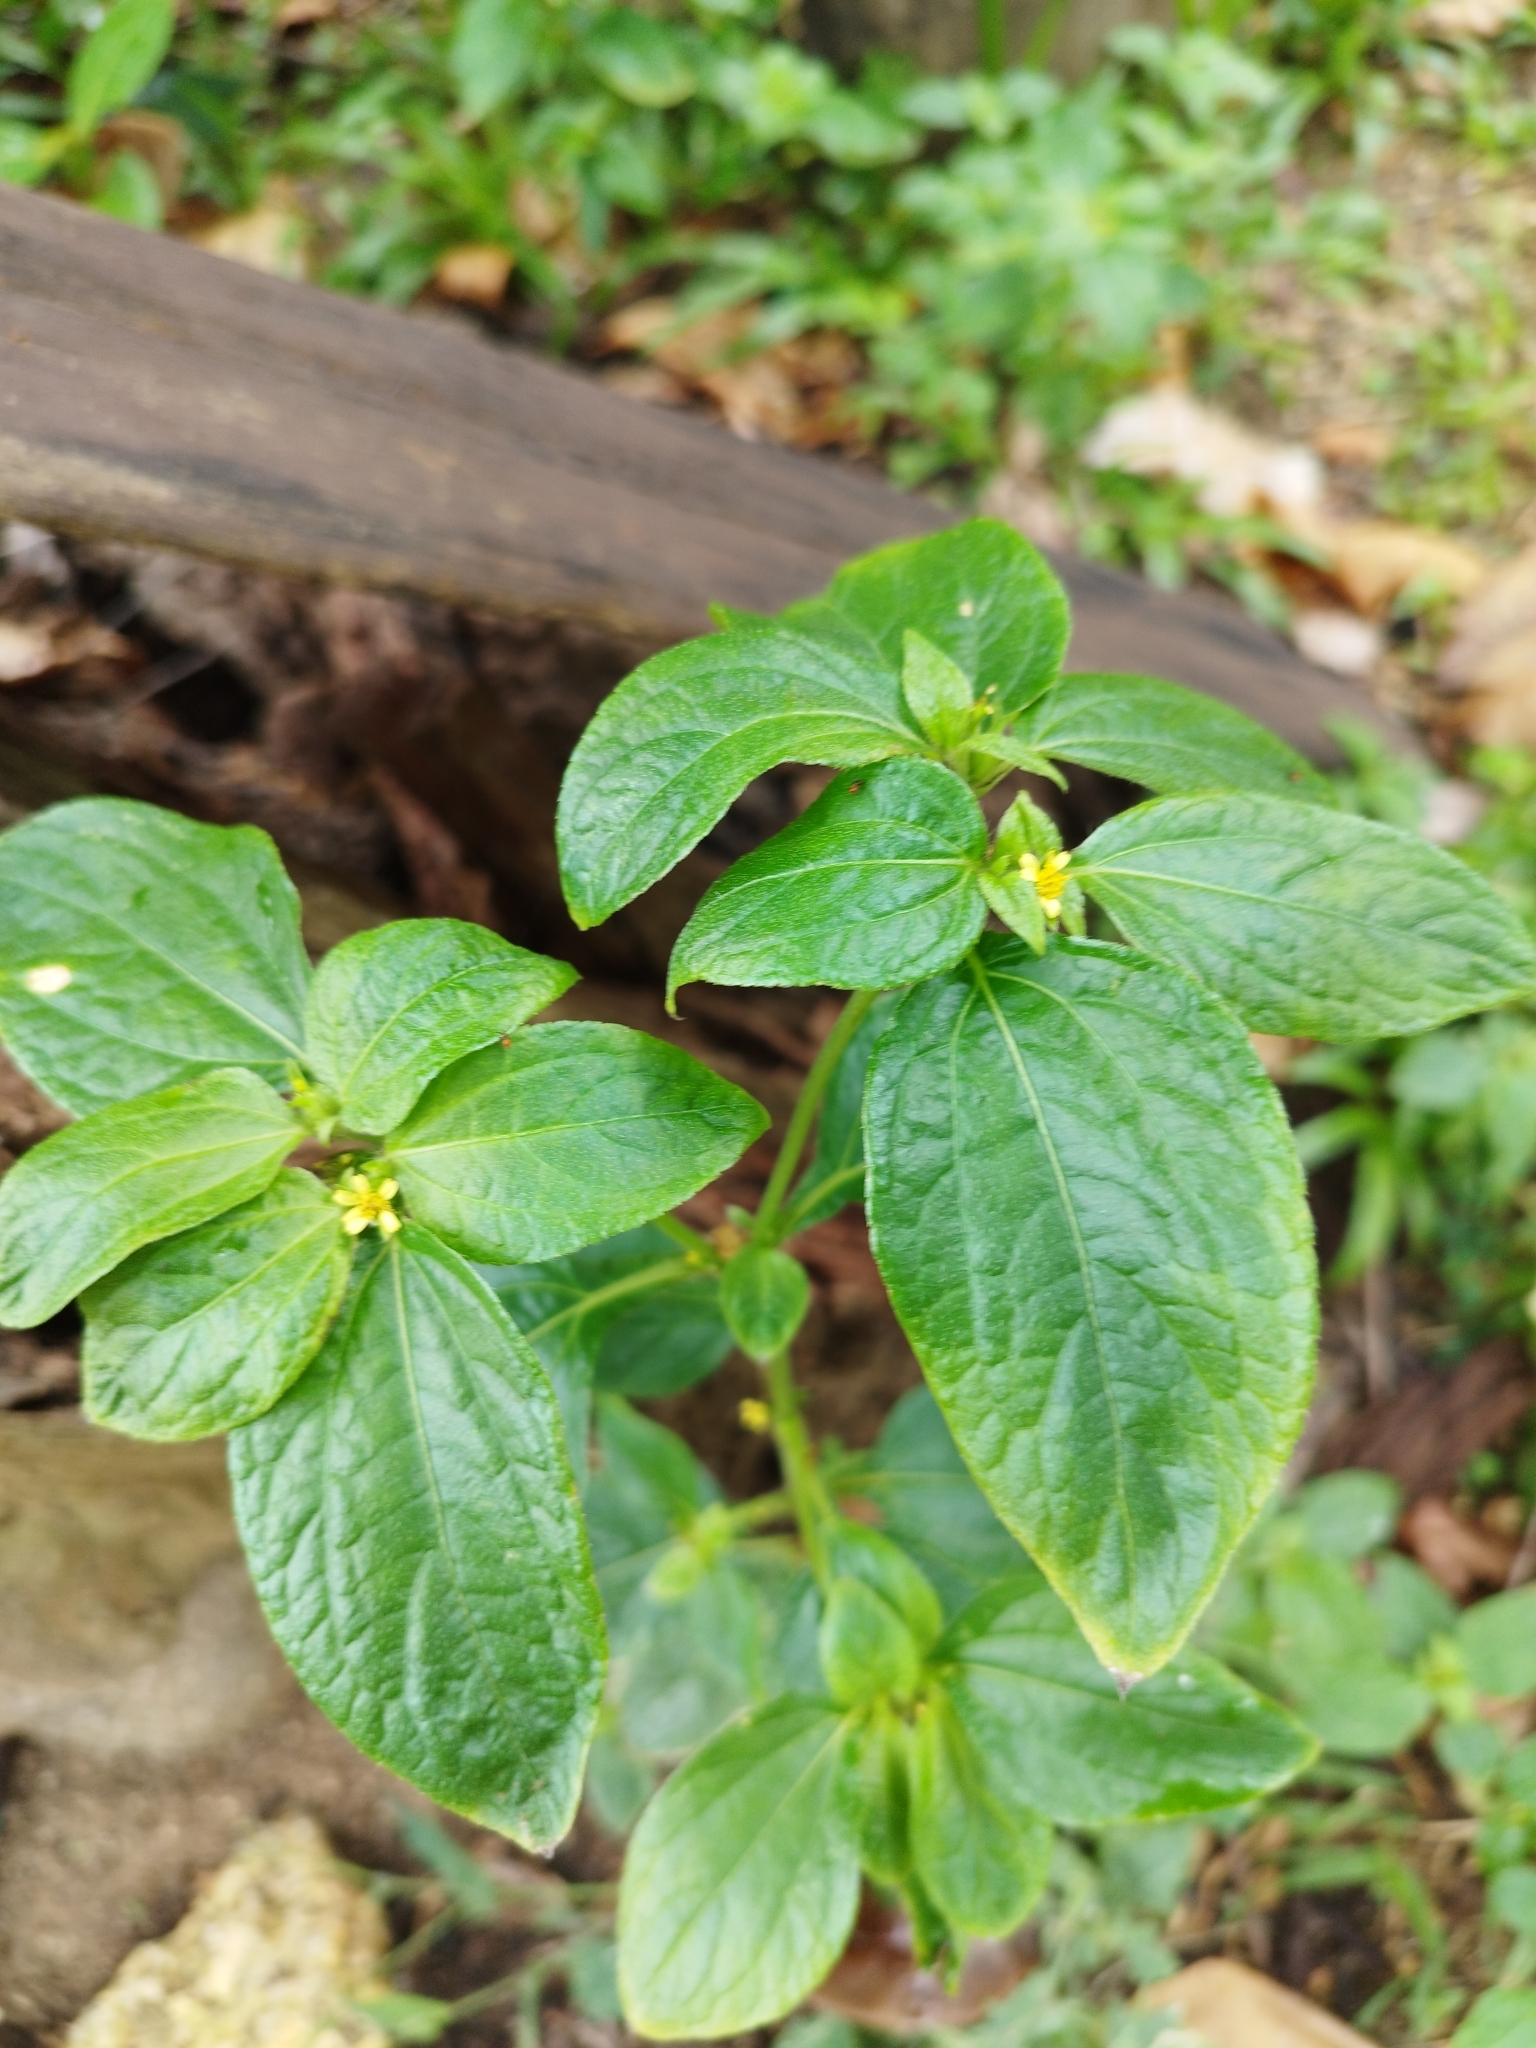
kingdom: Plantae
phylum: Tracheophyta
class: Magnoliopsida
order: Asterales
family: Asteraceae
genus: Synedrella
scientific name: Synedrella nodiflora
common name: Nodeweed
